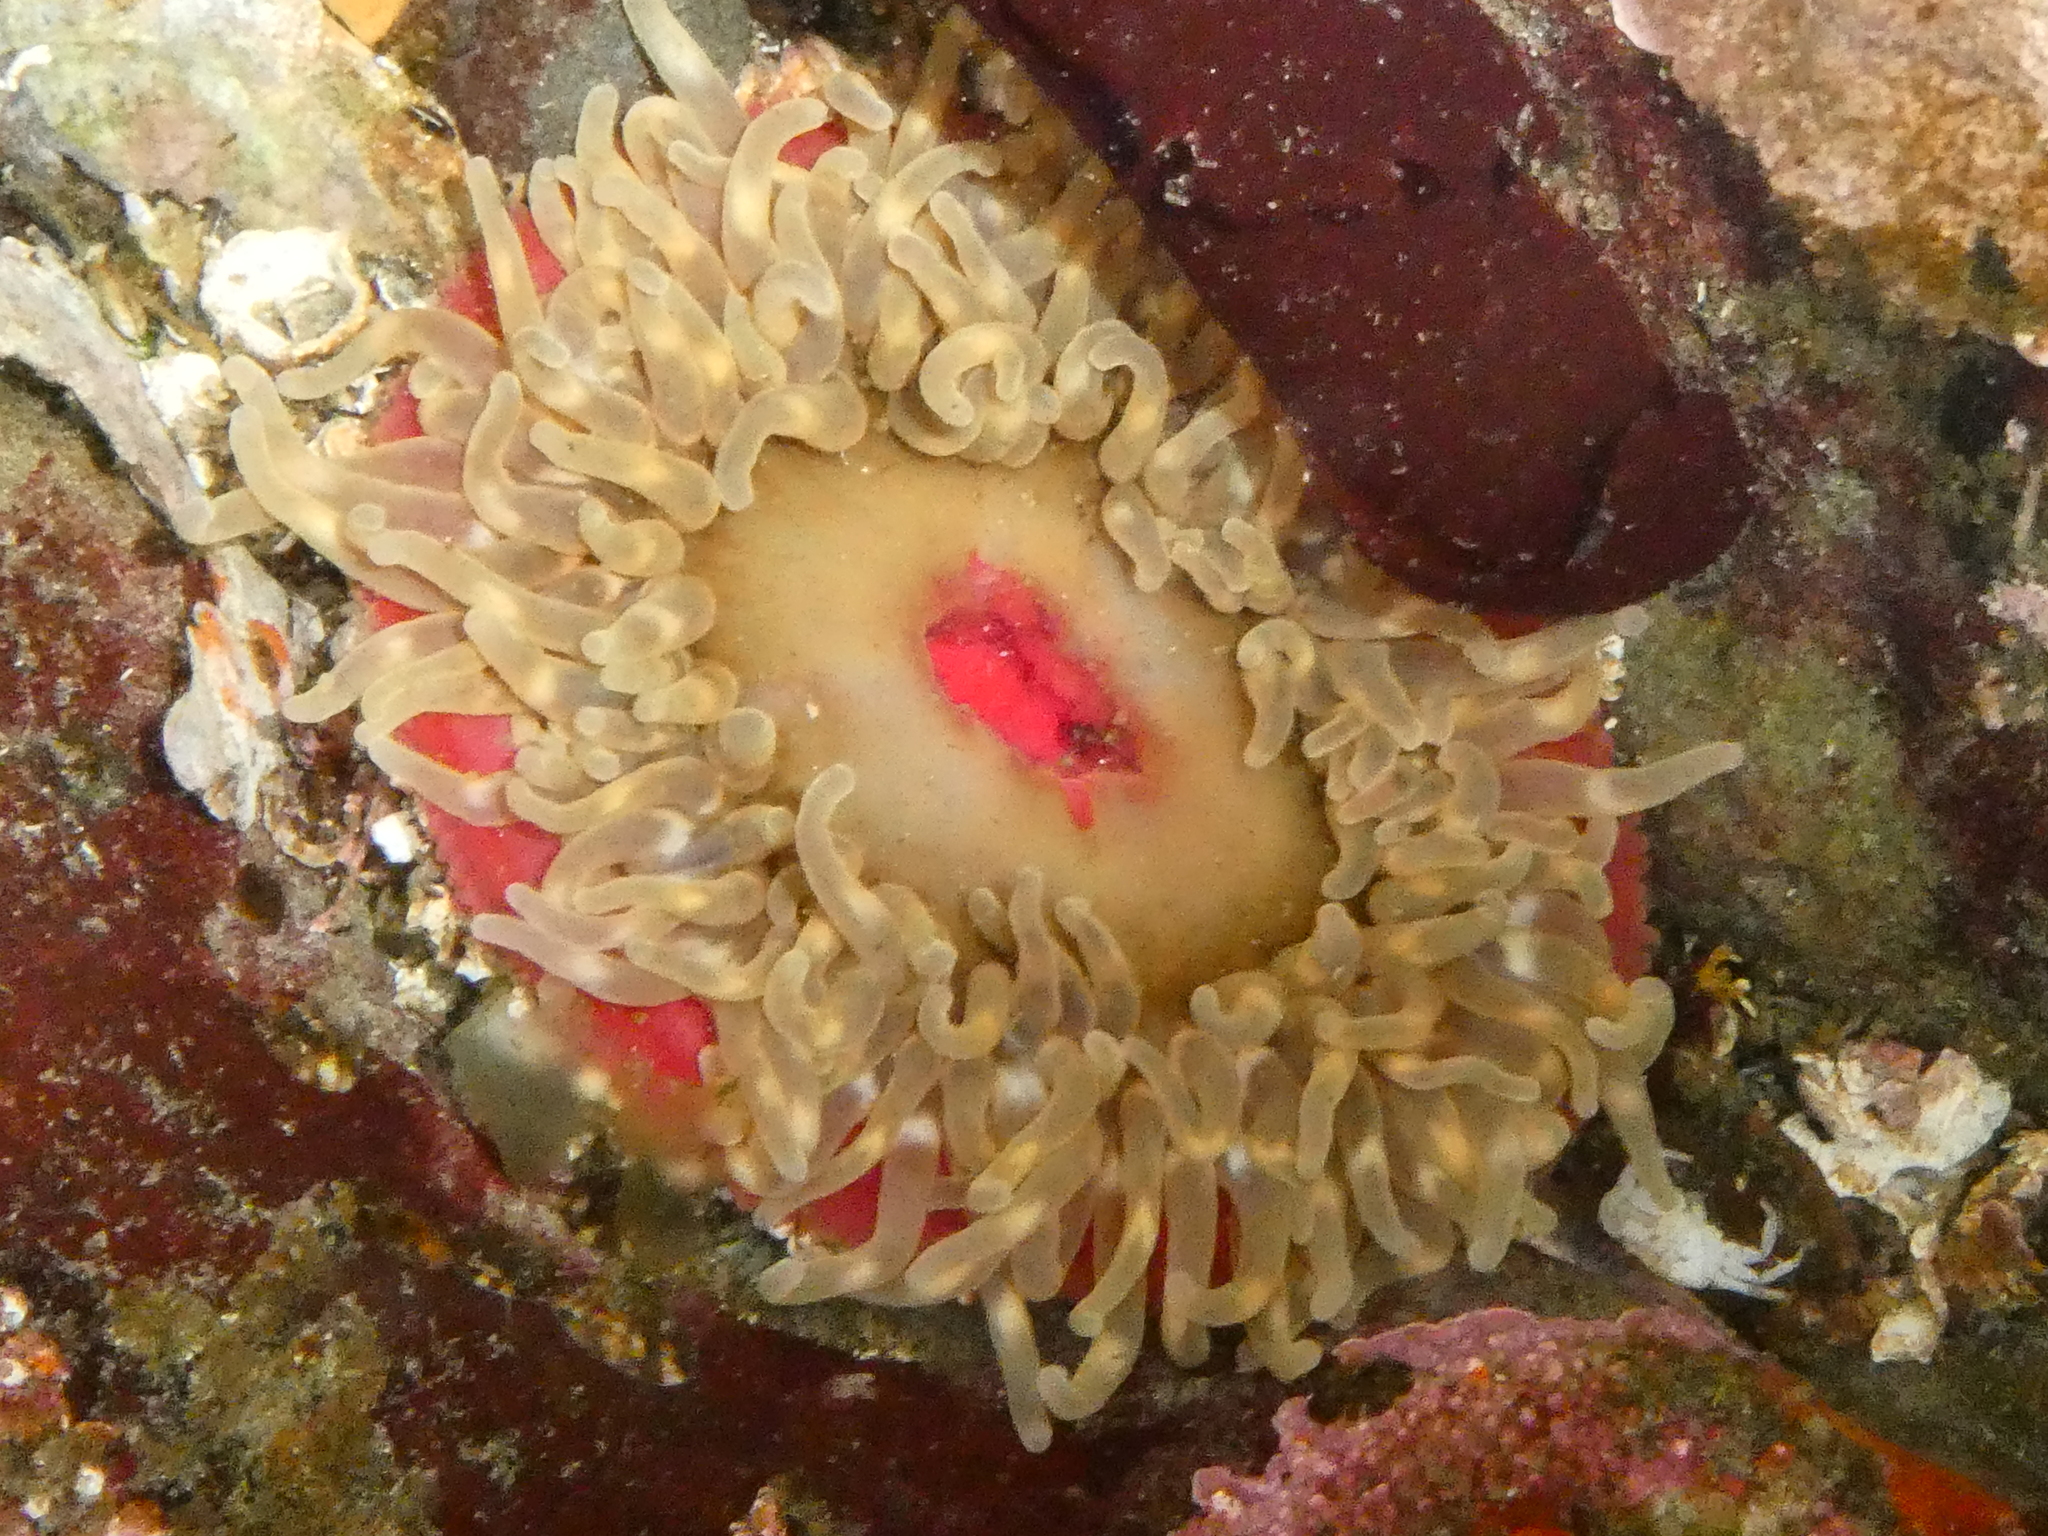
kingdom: Animalia
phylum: Cnidaria
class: Anthozoa
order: Actiniaria
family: Actiniidae
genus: Urticina
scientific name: Urticina clandestina
